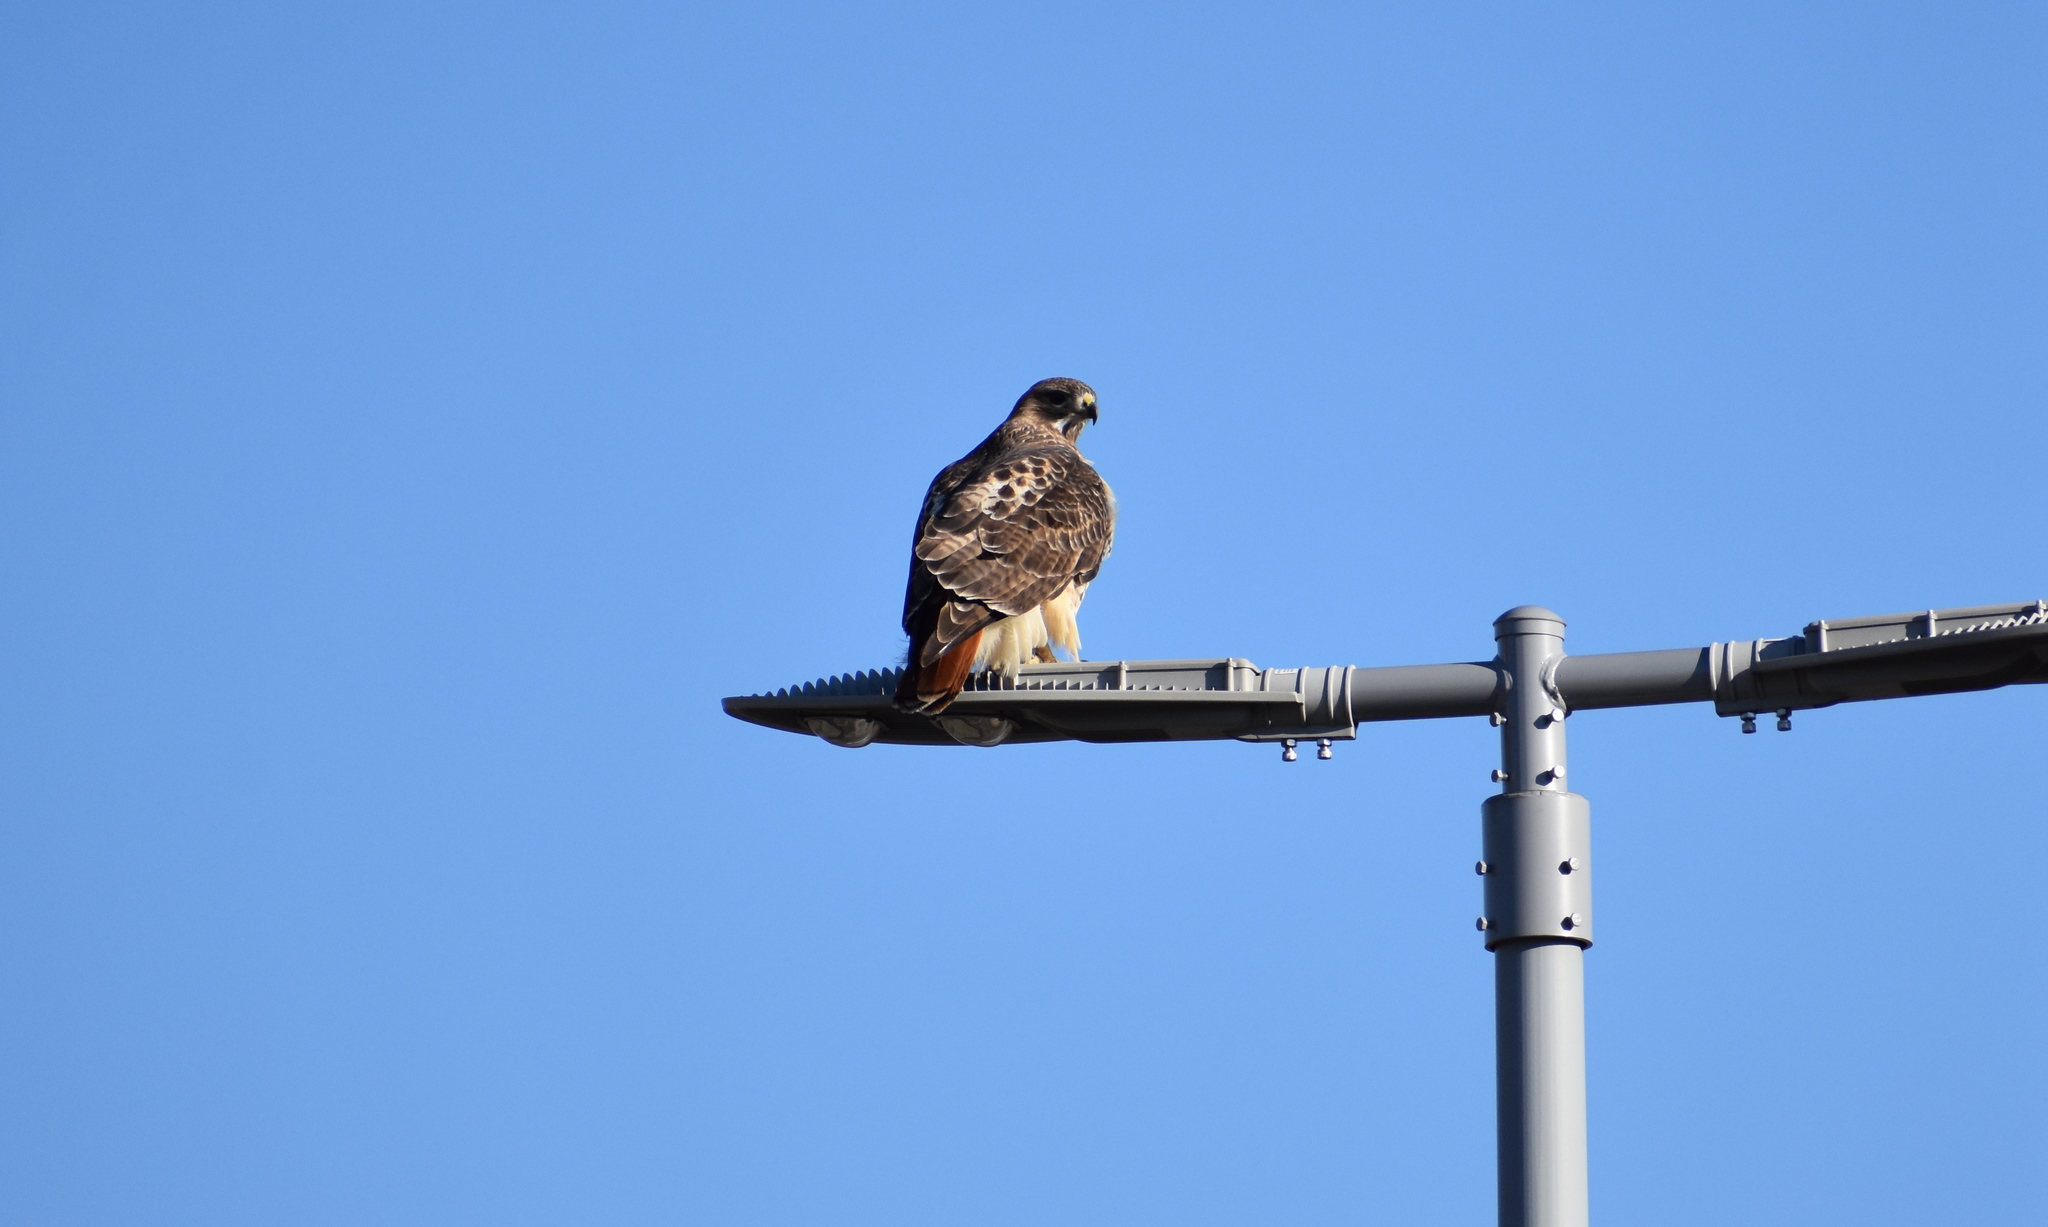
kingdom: Animalia
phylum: Chordata
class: Aves
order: Accipitriformes
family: Accipitridae
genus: Buteo
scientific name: Buteo jamaicensis
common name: Red-tailed hawk
